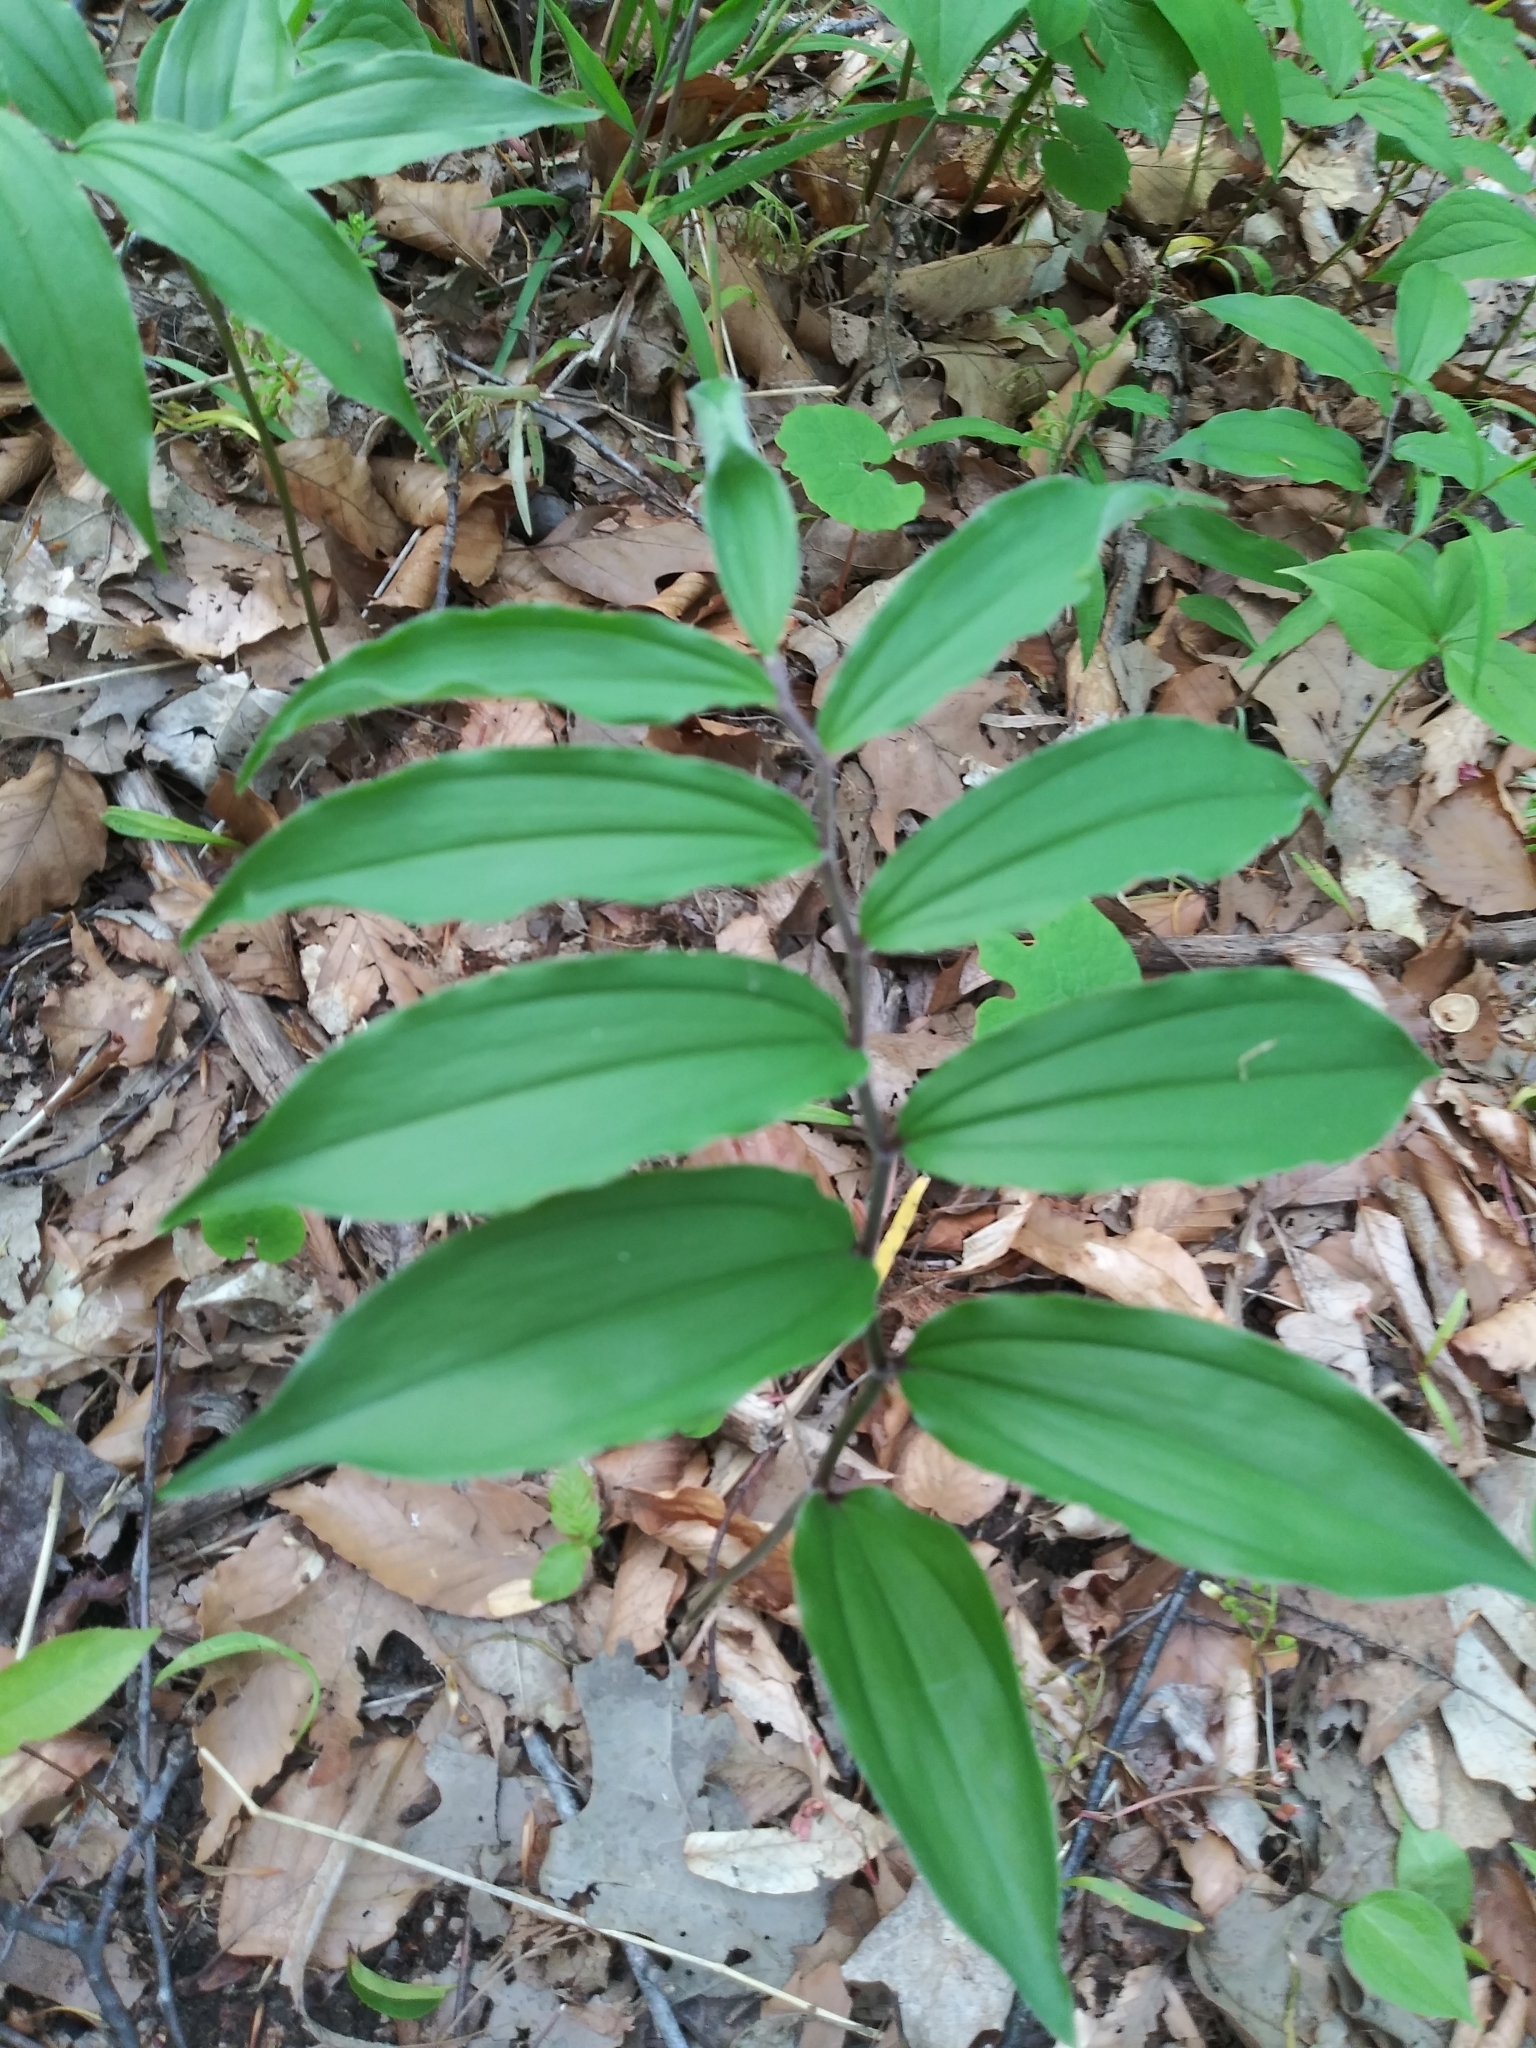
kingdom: Plantae
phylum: Tracheophyta
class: Liliopsida
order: Asparagales
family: Asparagaceae
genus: Maianthemum
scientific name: Maianthemum racemosum
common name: False spikenard
